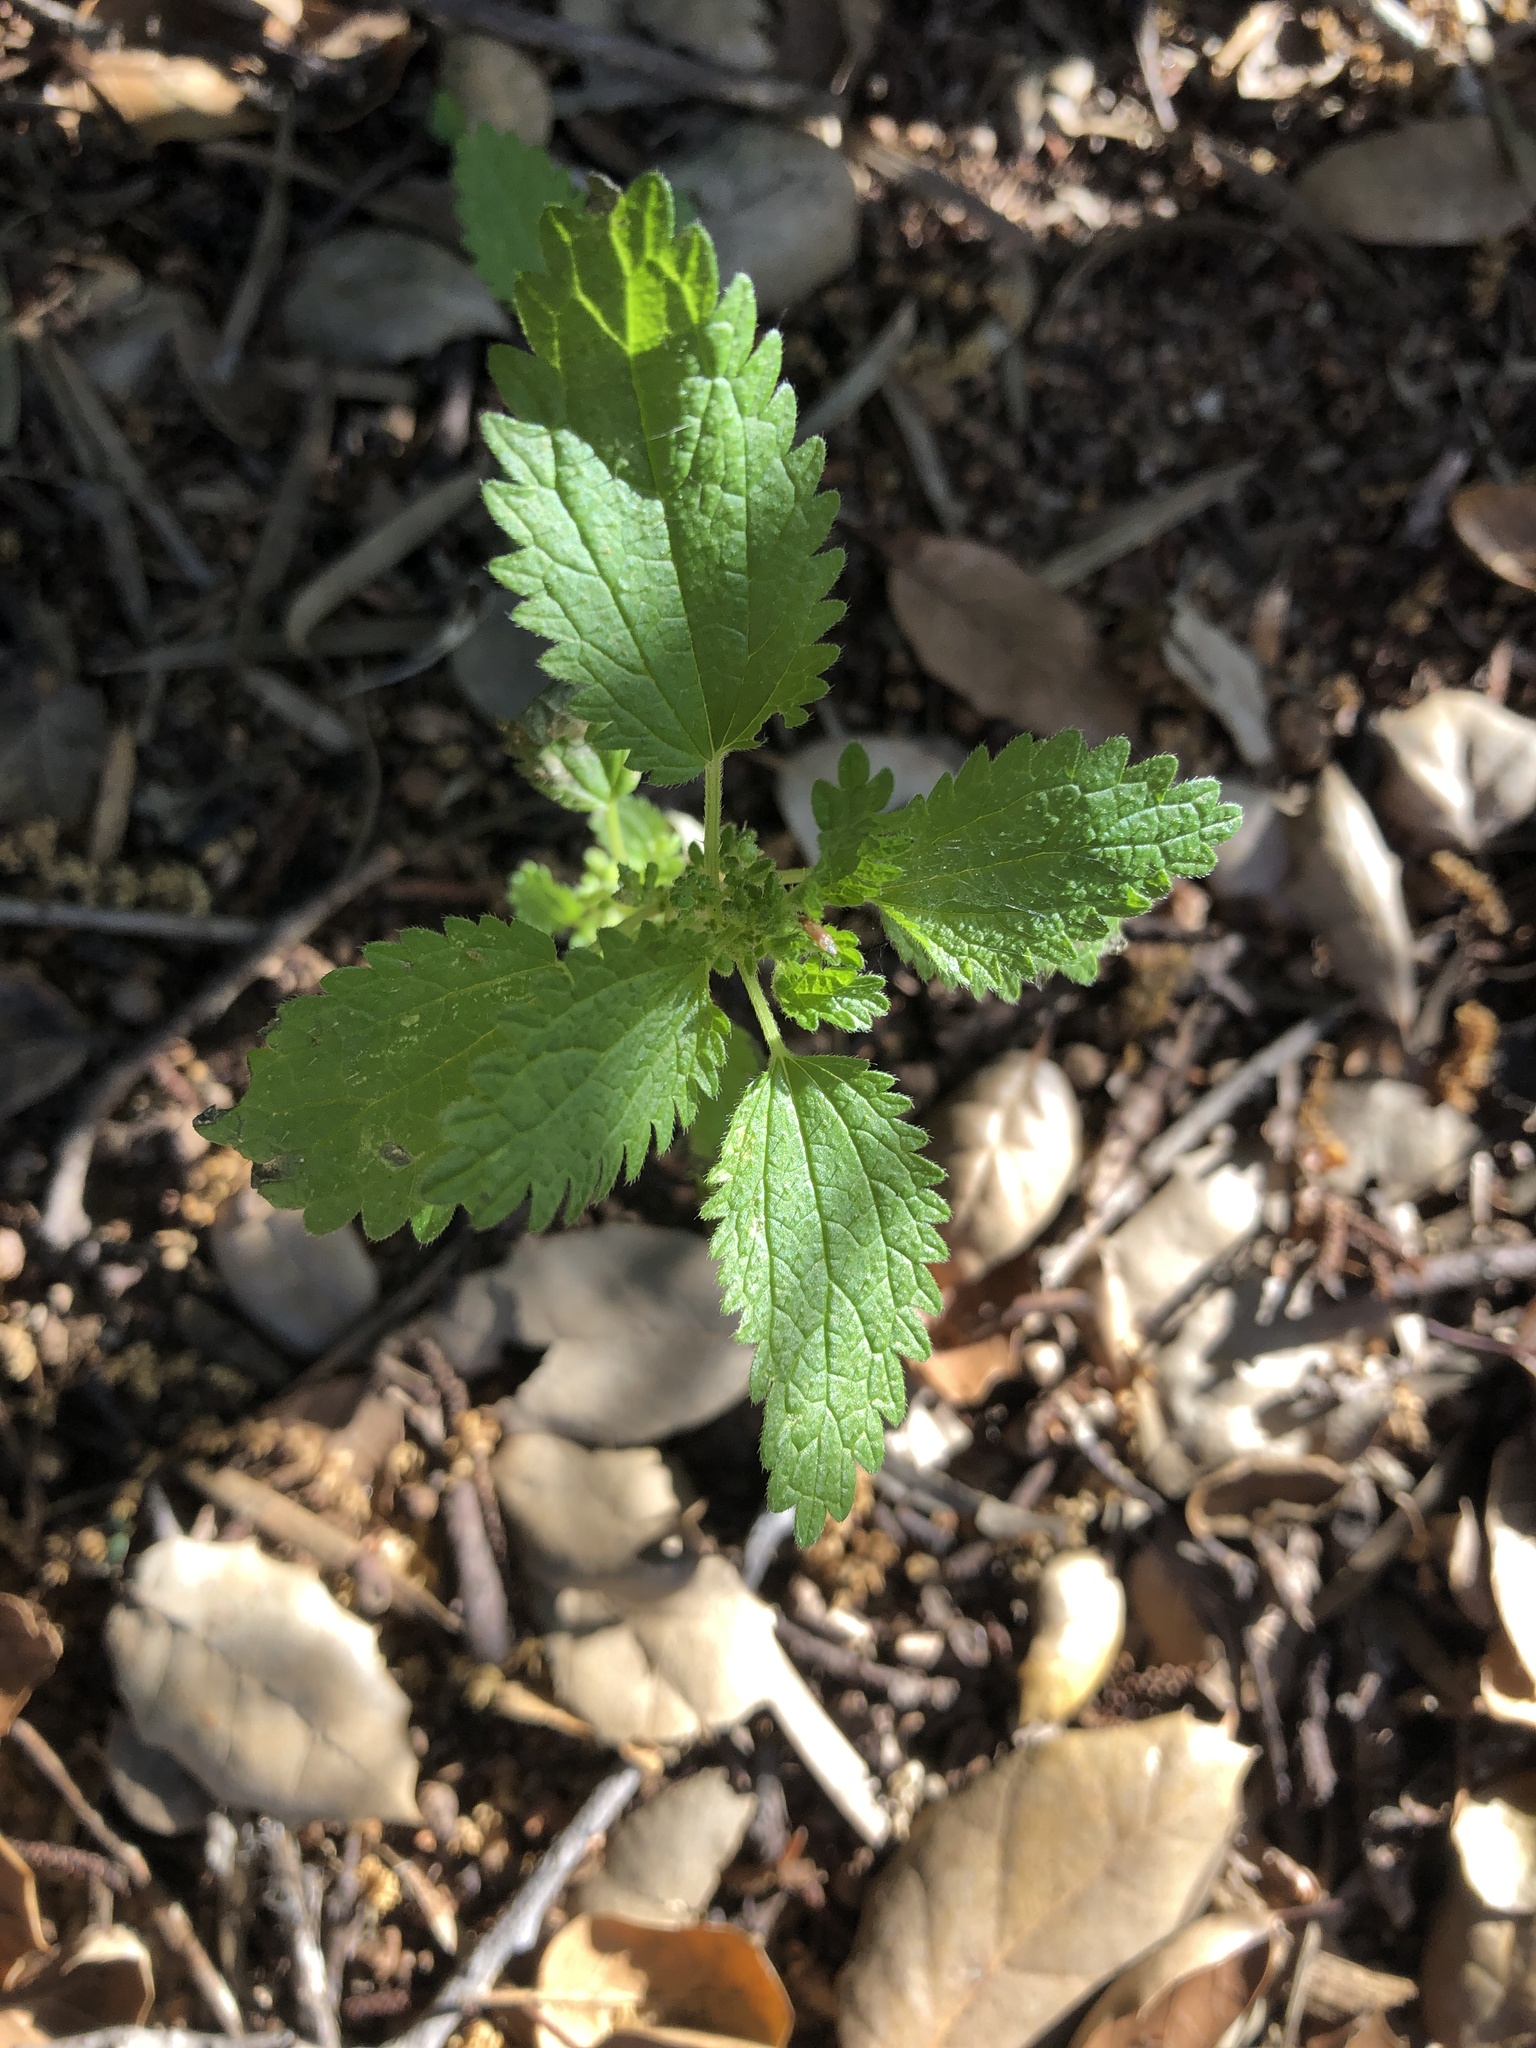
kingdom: Plantae
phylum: Tracheophyta
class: Magnoliopsida
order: Rosales
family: Urticaceae
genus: Urtica
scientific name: Urtica urens
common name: Dwarf nettle
